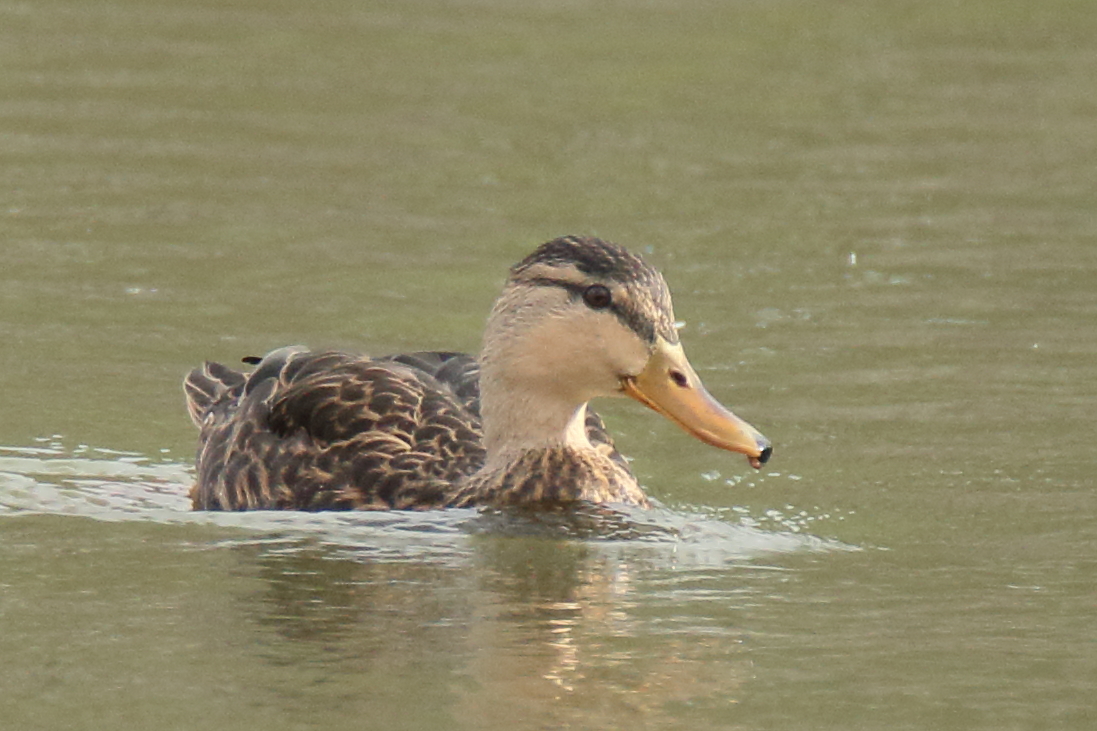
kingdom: Animalia
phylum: Chordata
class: Aves
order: Anseriformes
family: Anatidae
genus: Anas
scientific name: Anas fulvigula
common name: Mottled duck
